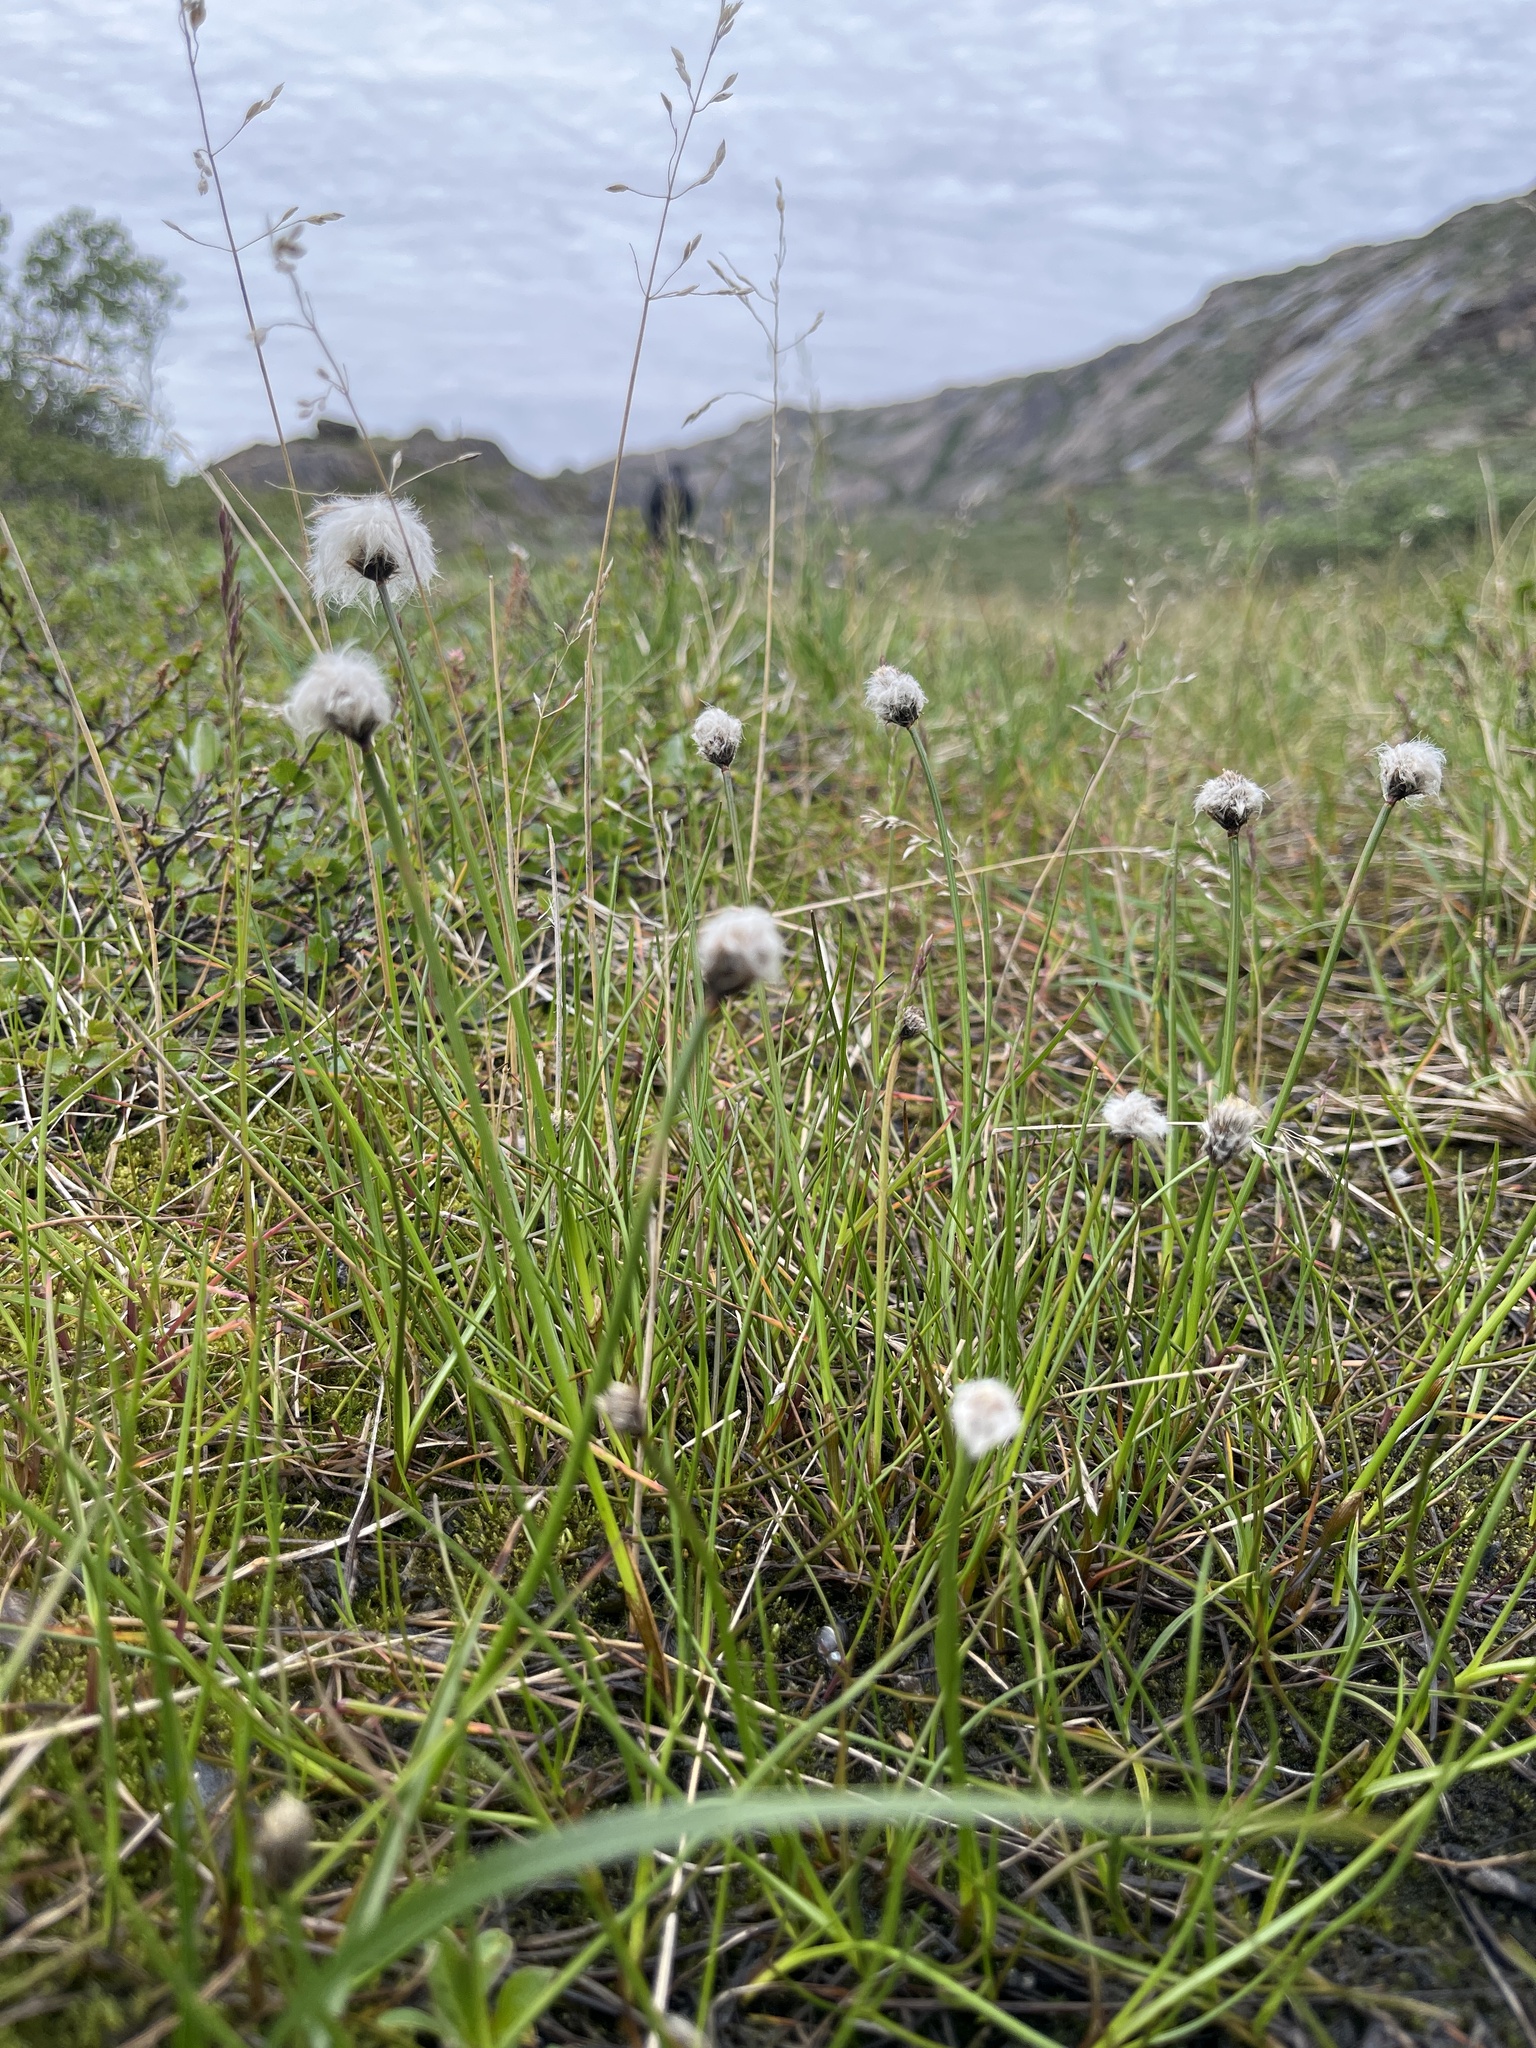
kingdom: Plantae
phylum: Tracheophyta
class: Liliopsida
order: Poales
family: Cyperaceae
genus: Eriophorum
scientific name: Eriophorum scheuchzeri
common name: Scheuchzer's cottongrass
